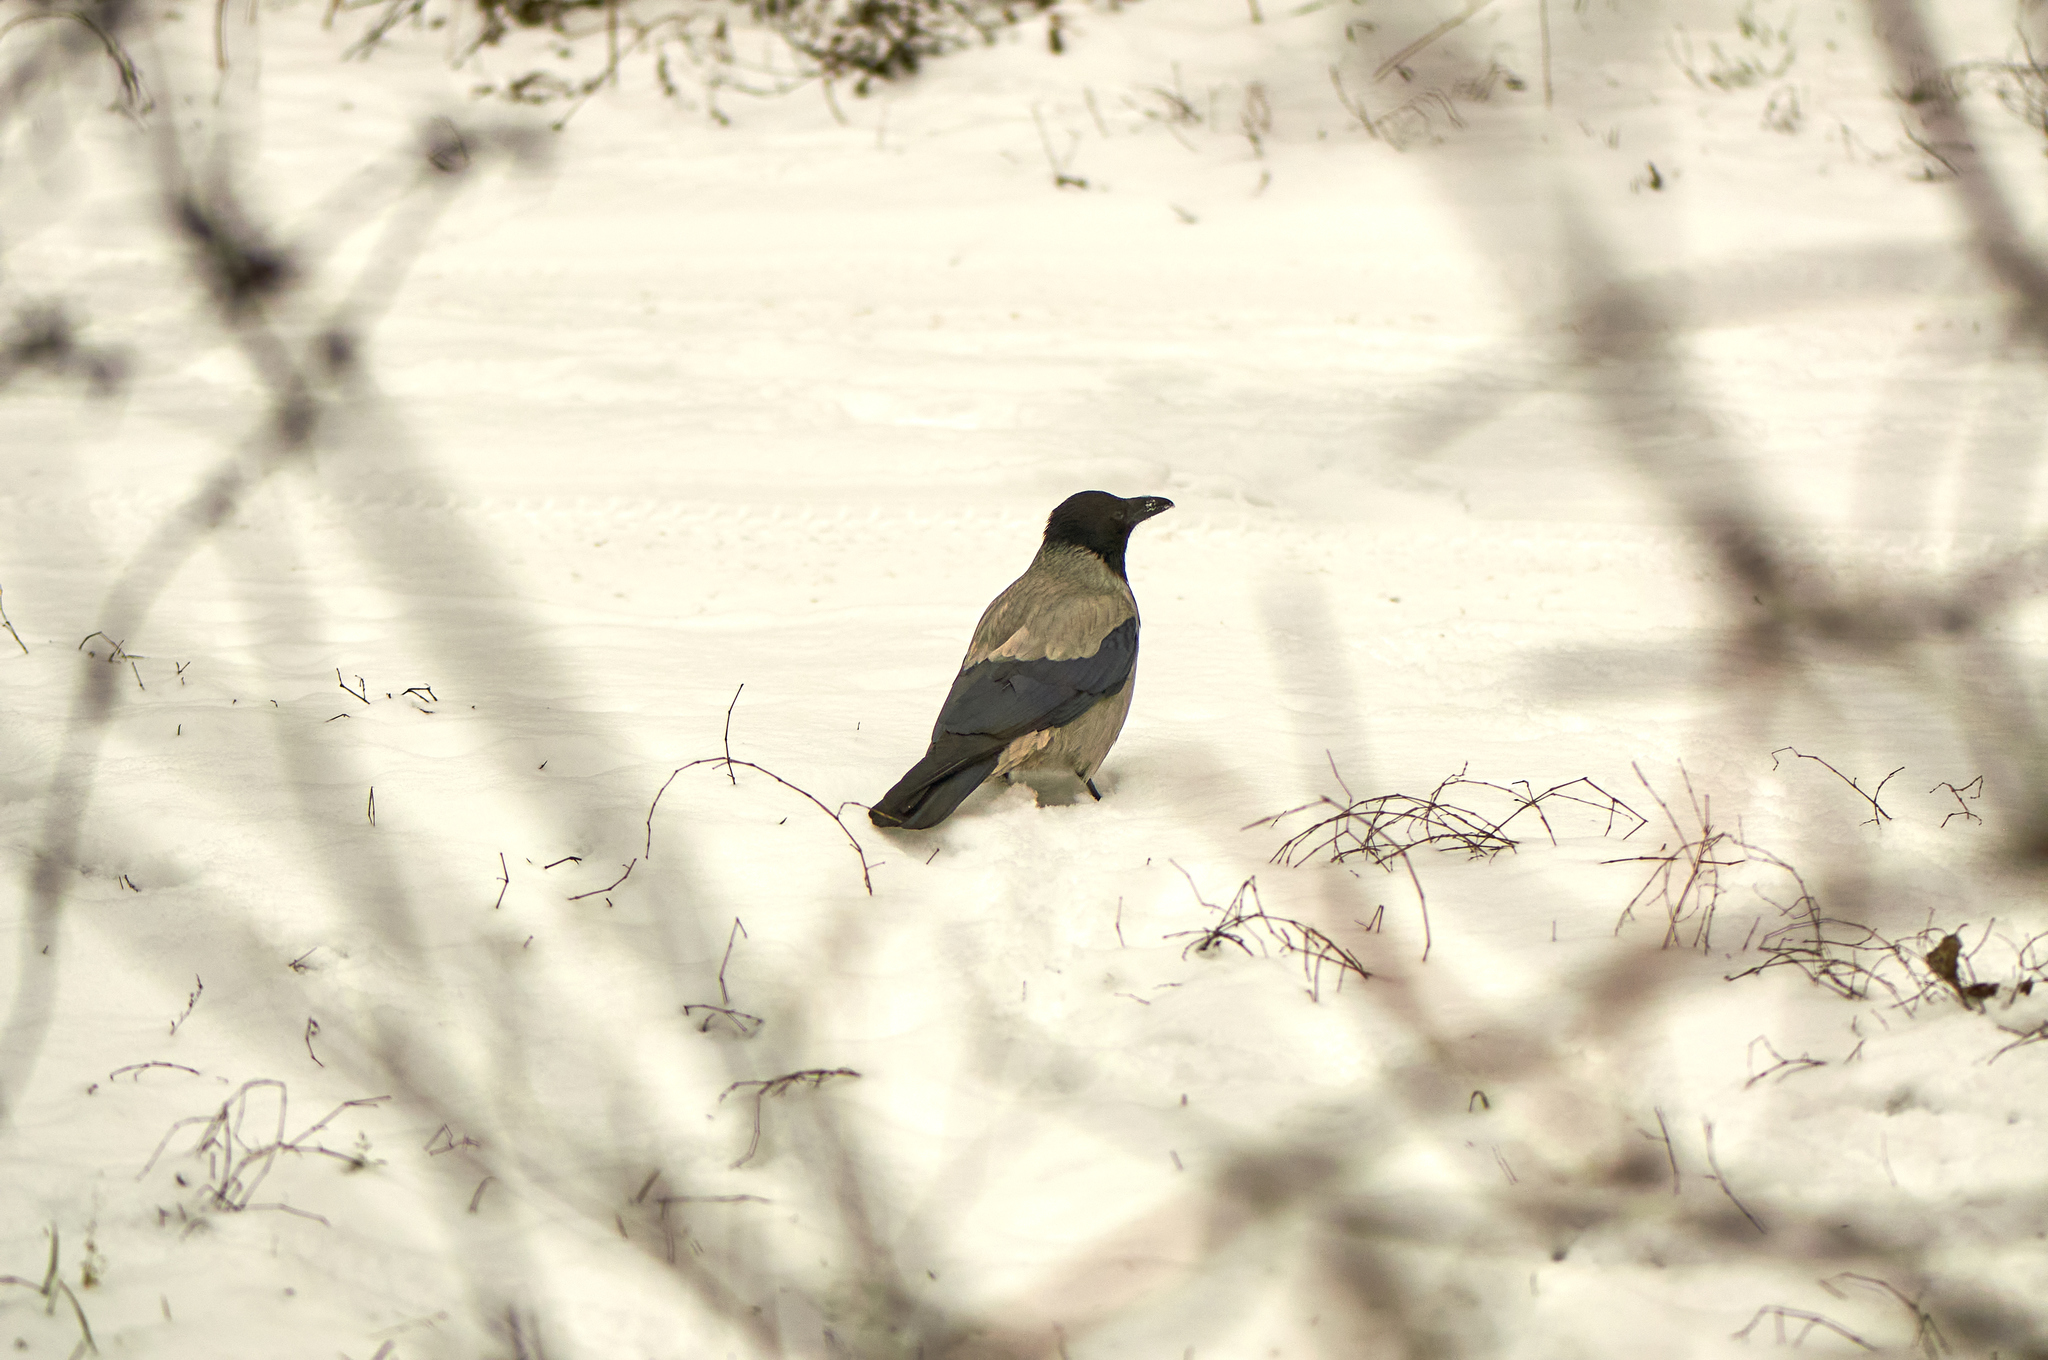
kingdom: Animalia
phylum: Chordata
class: Aves
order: Passeriformes
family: Corvidae
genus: Corvus
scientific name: Corvus cornix
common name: Hooded crow
